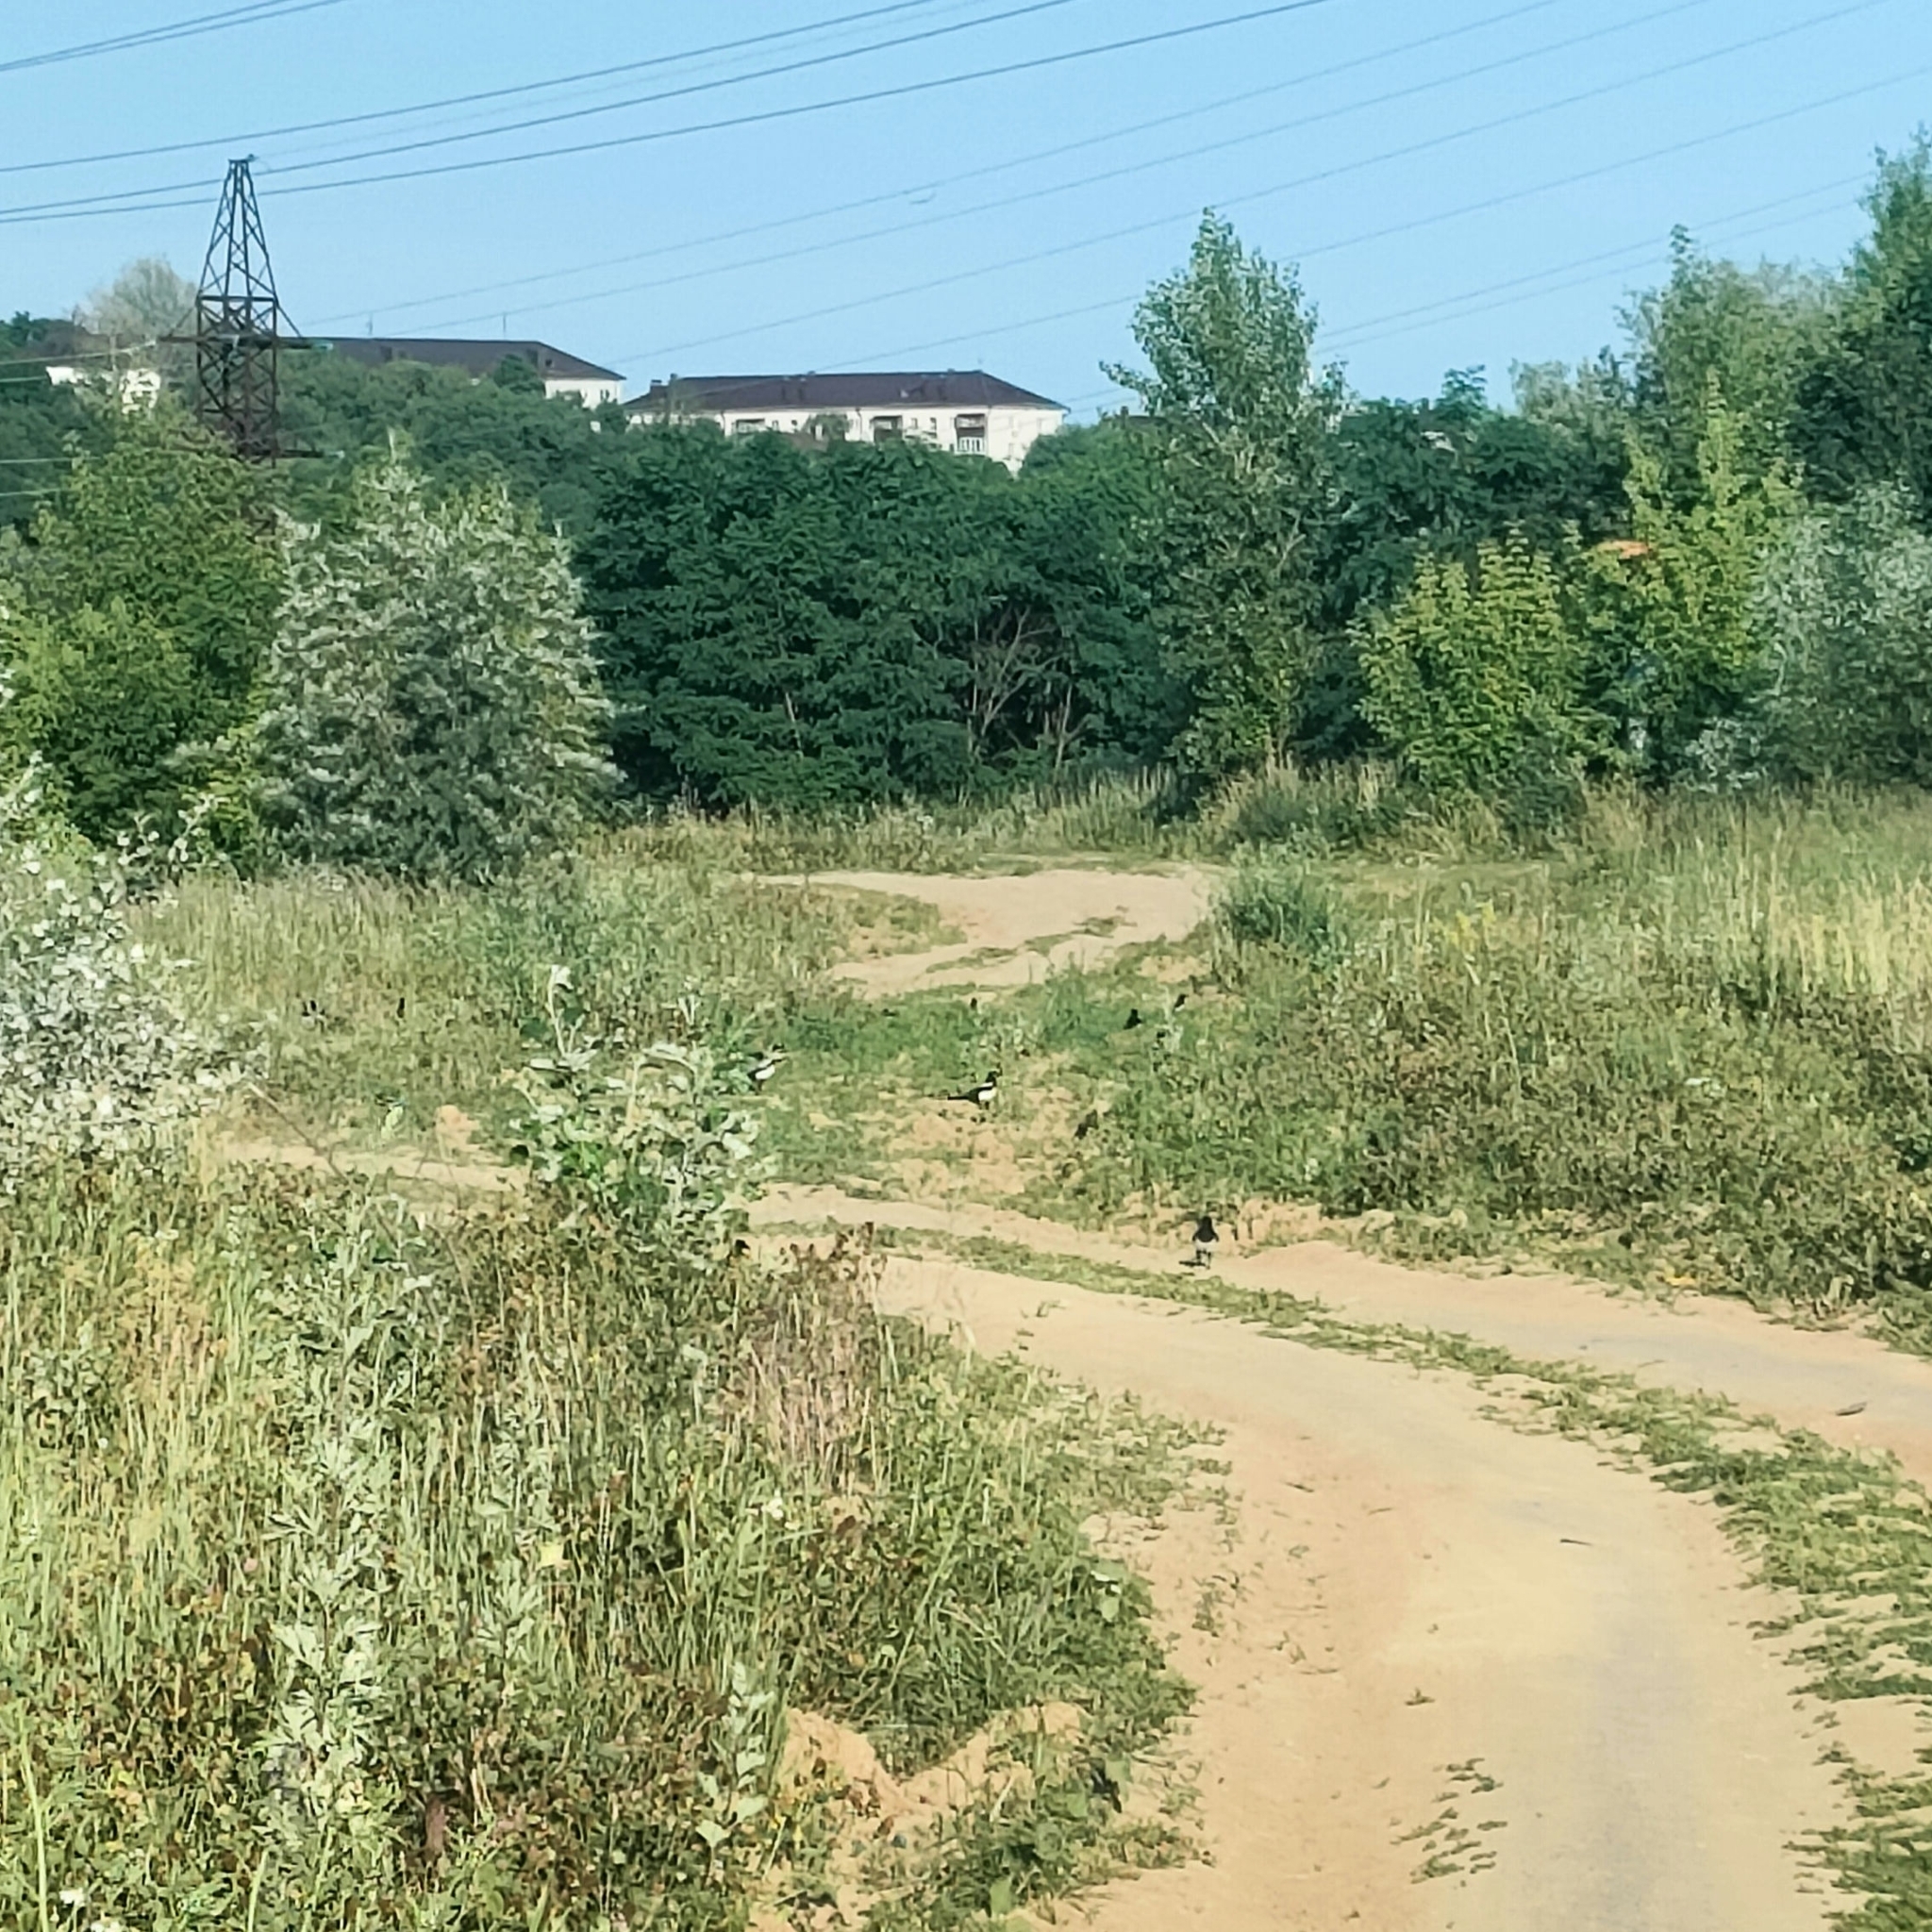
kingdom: Animalia
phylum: Chordata
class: Aves
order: Passeriformes
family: Corvidae
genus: Pica
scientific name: Pica pica
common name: Eurasian magpie
